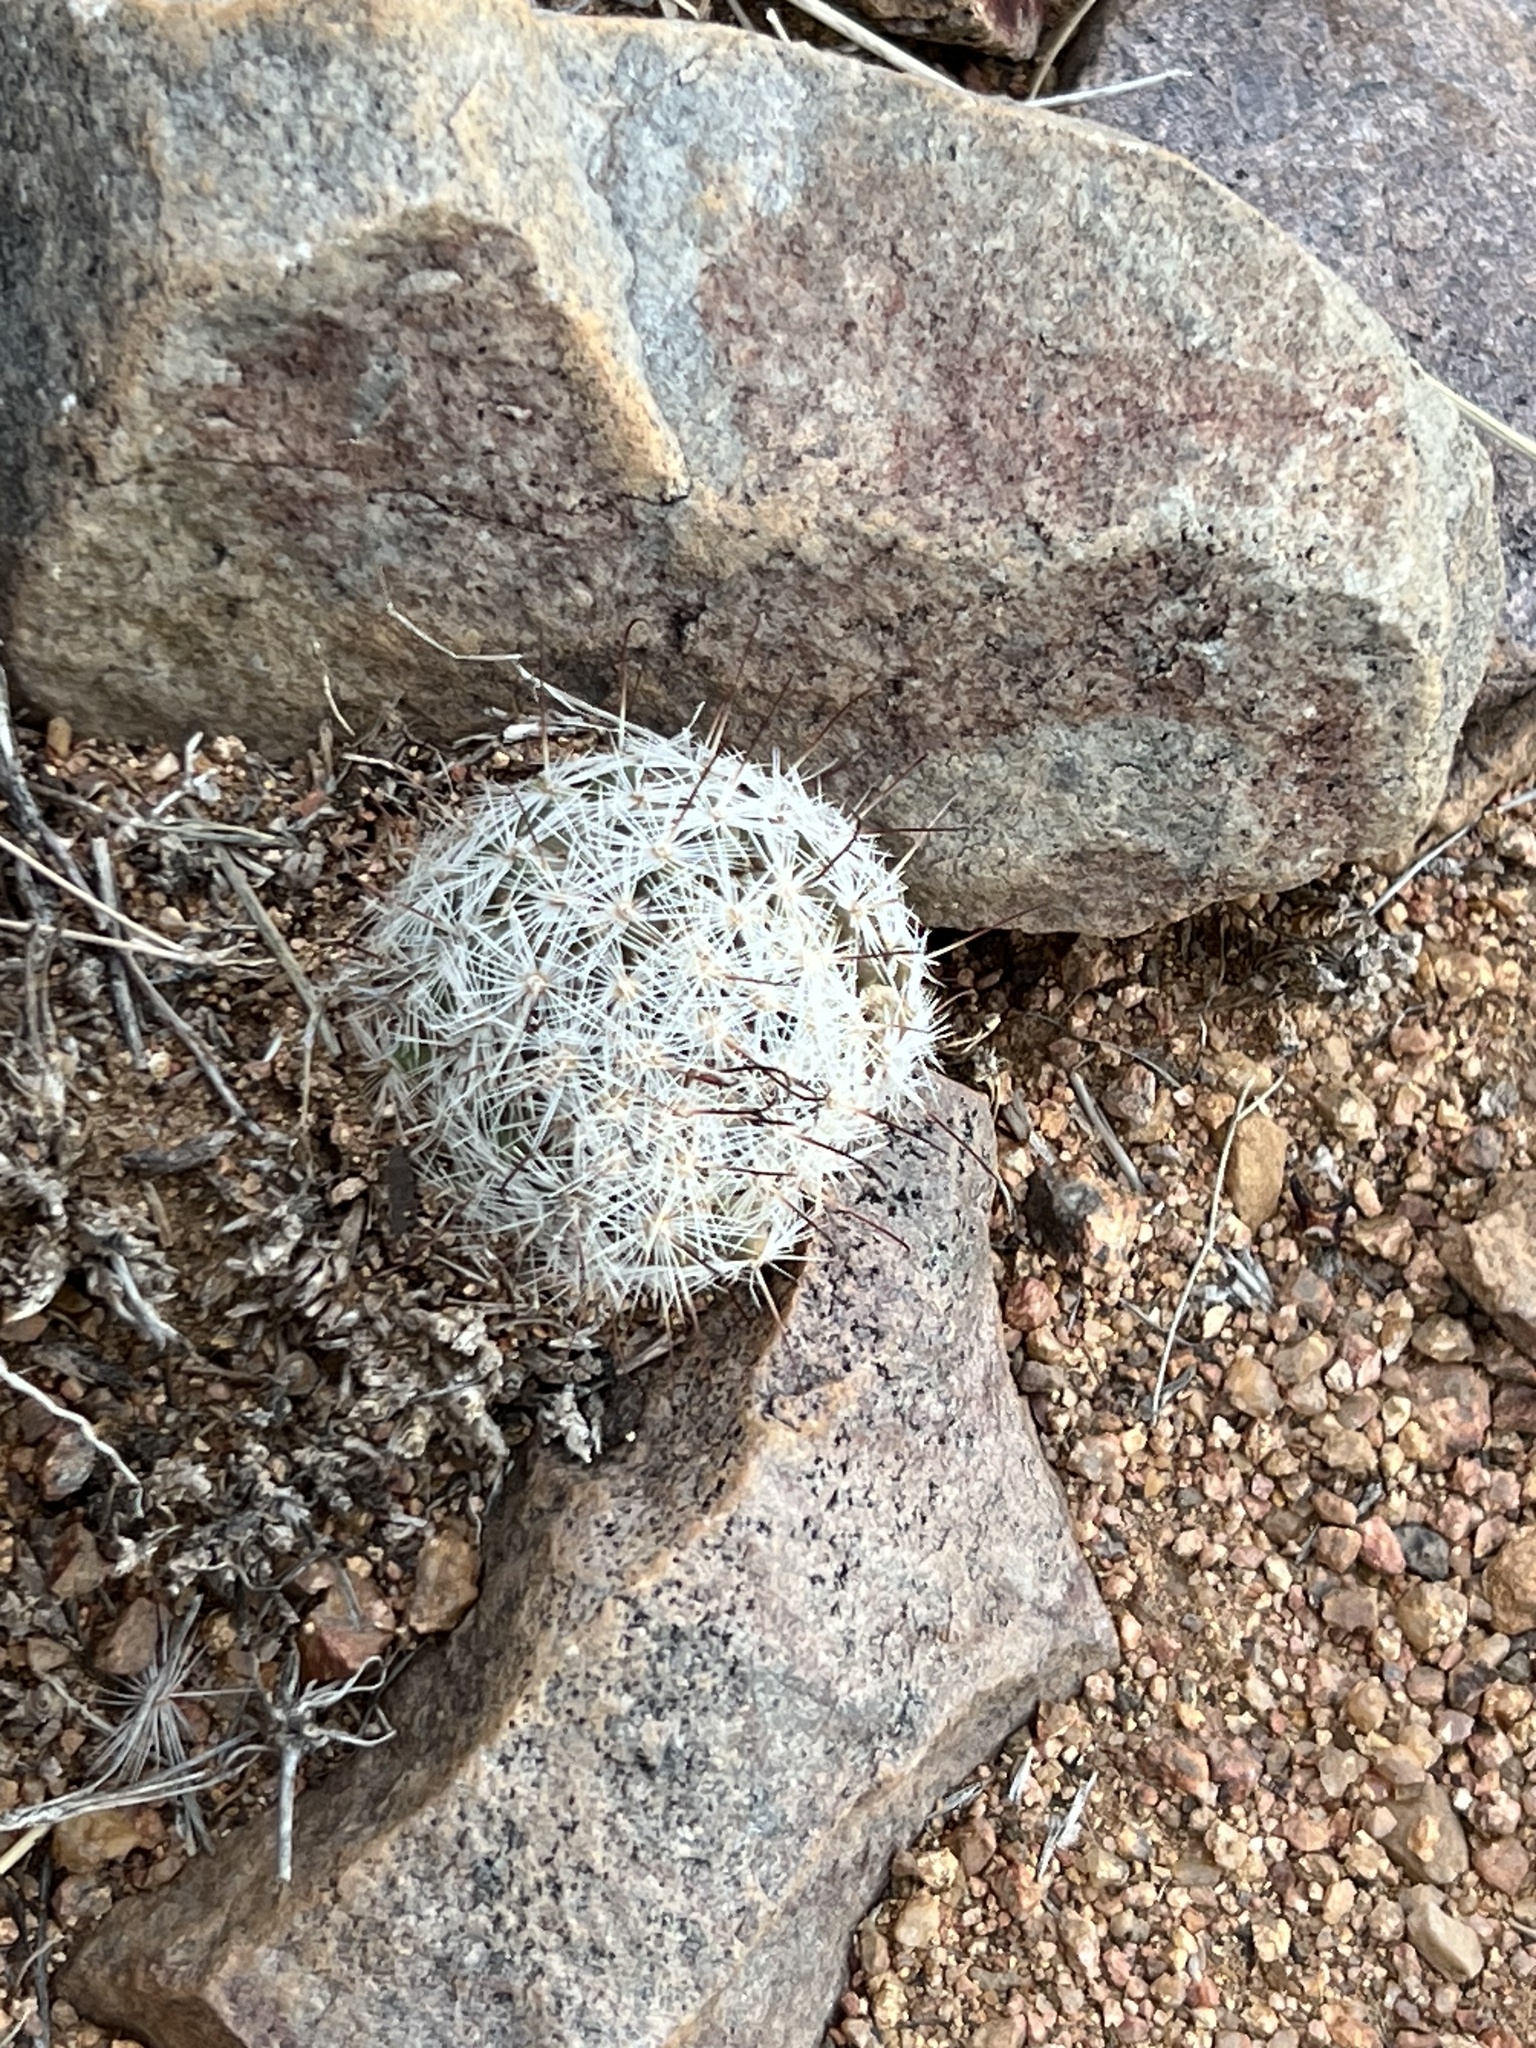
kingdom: Plantae
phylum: Tracheophyta
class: Magnoliopsida
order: Caryophyllales
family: Cactaceae
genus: Cochemiea
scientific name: Cochemiea grahamii
